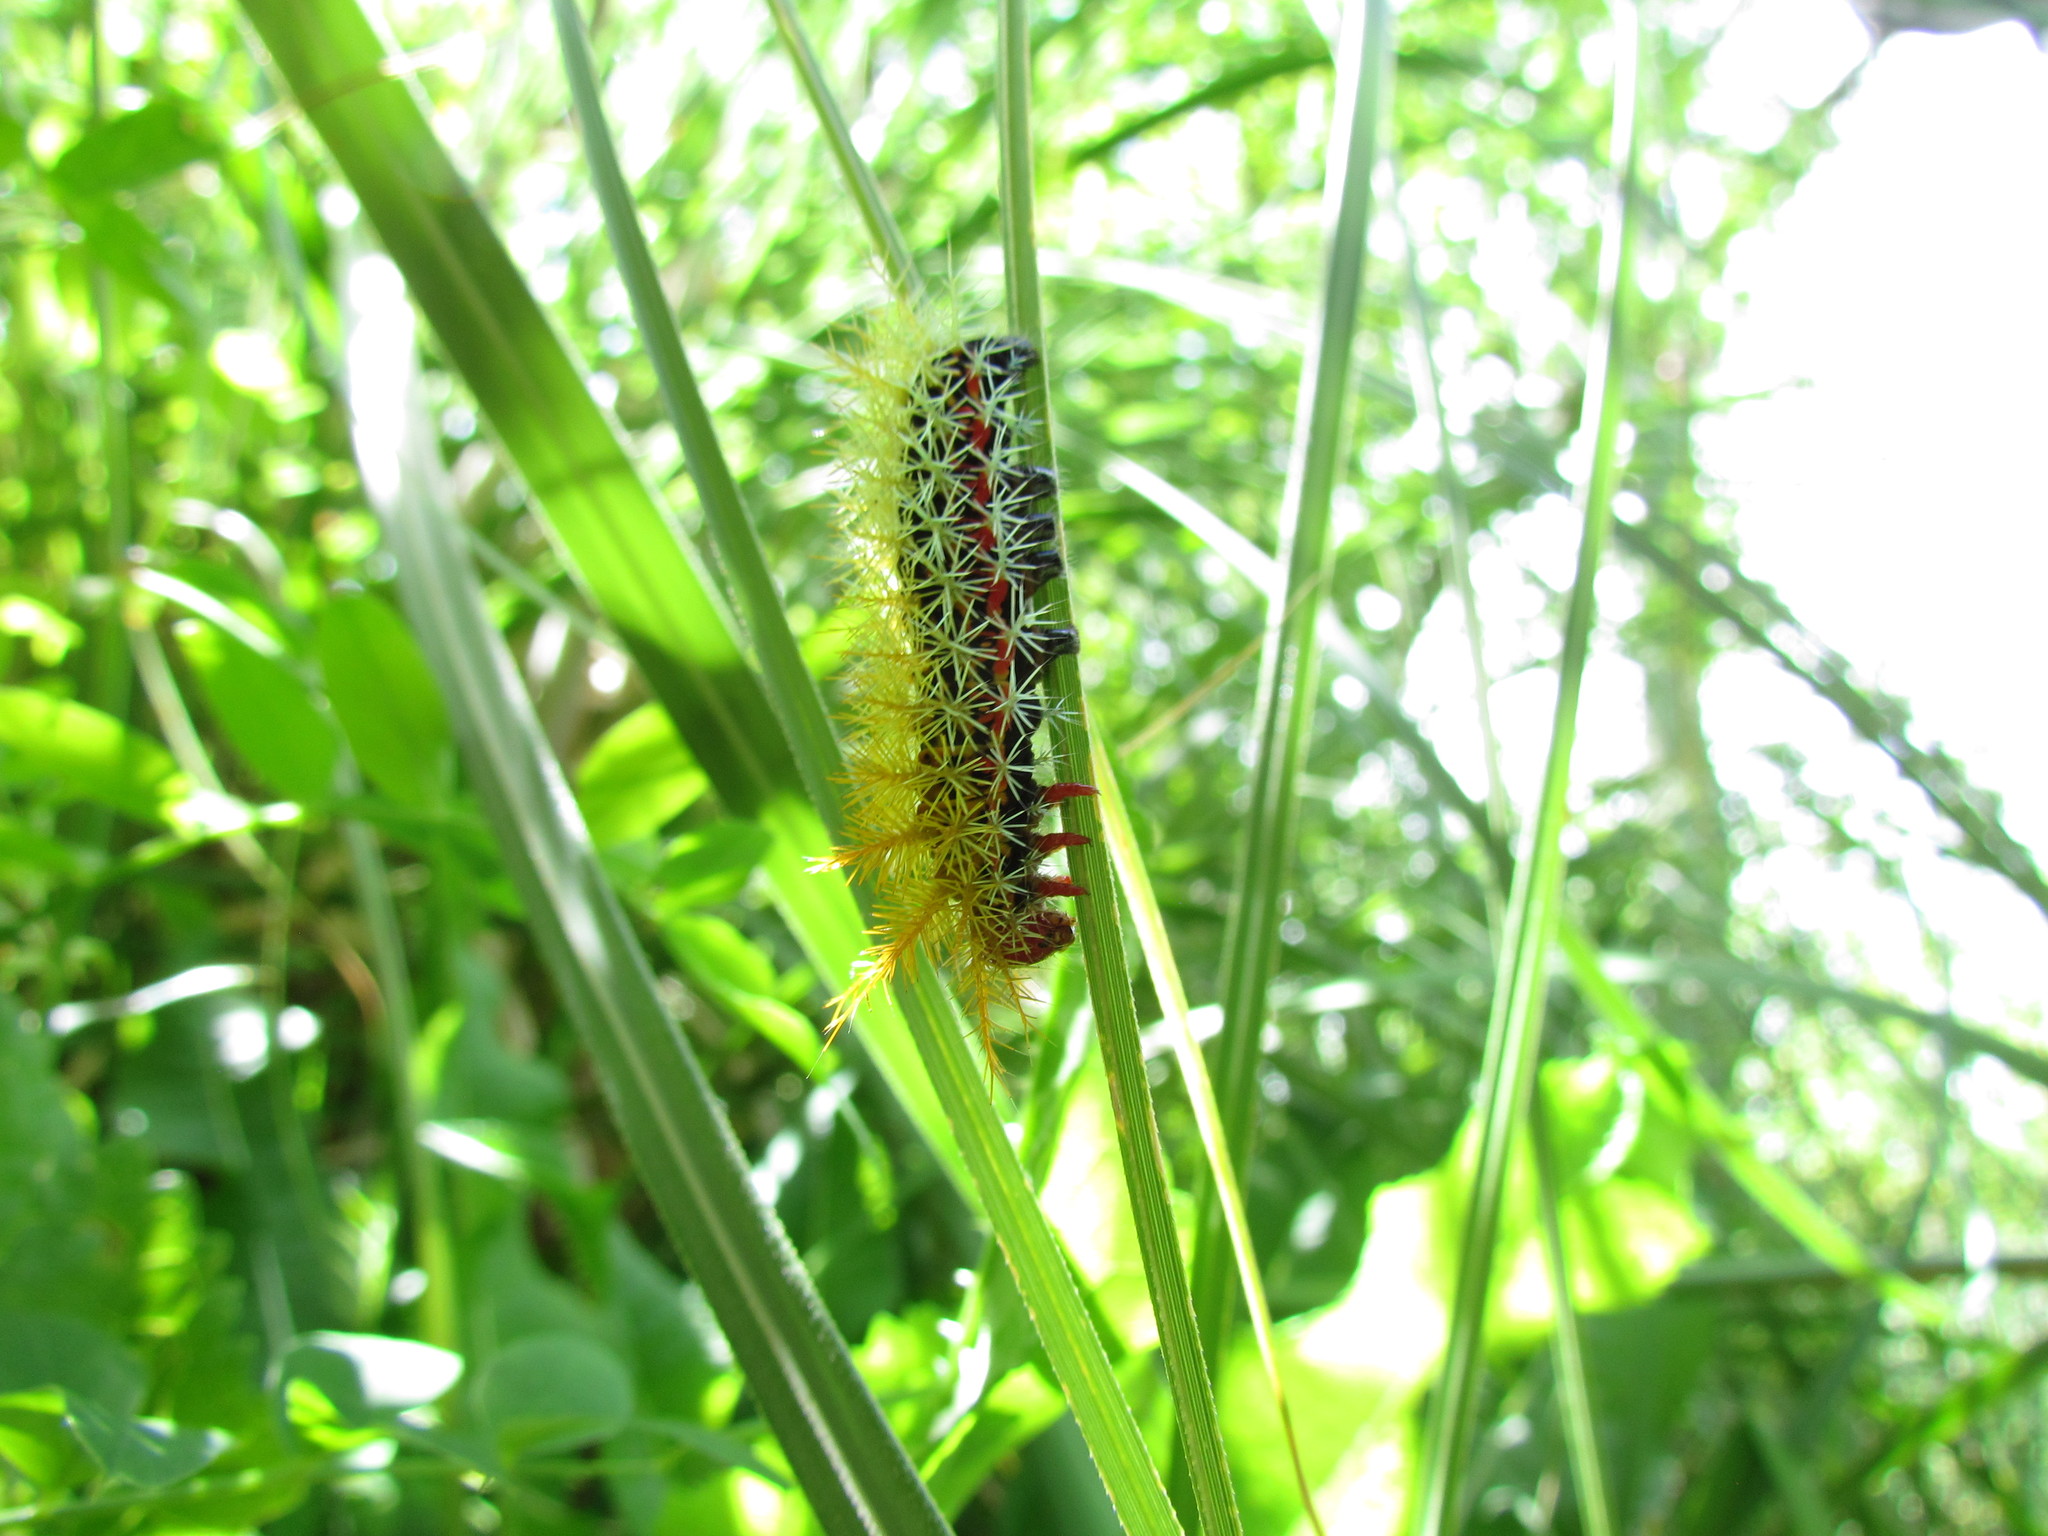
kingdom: Animalia
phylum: Arthropoda
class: Insecta
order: Lepidoptera
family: Saturniidae
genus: Pseudautomeris
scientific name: Pseudautomeris grammivora
